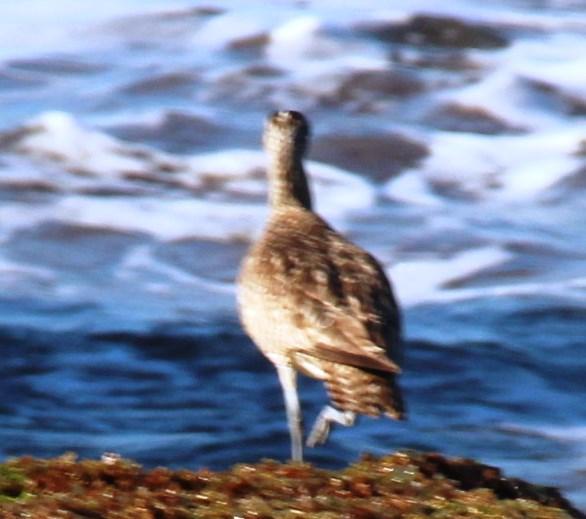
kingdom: Animalia
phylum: Chordata
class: Aves
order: Charadriiformes
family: Scolopacidae
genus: Numenius
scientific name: Numenius hudsonicus
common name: Hudsonian whimbrel
